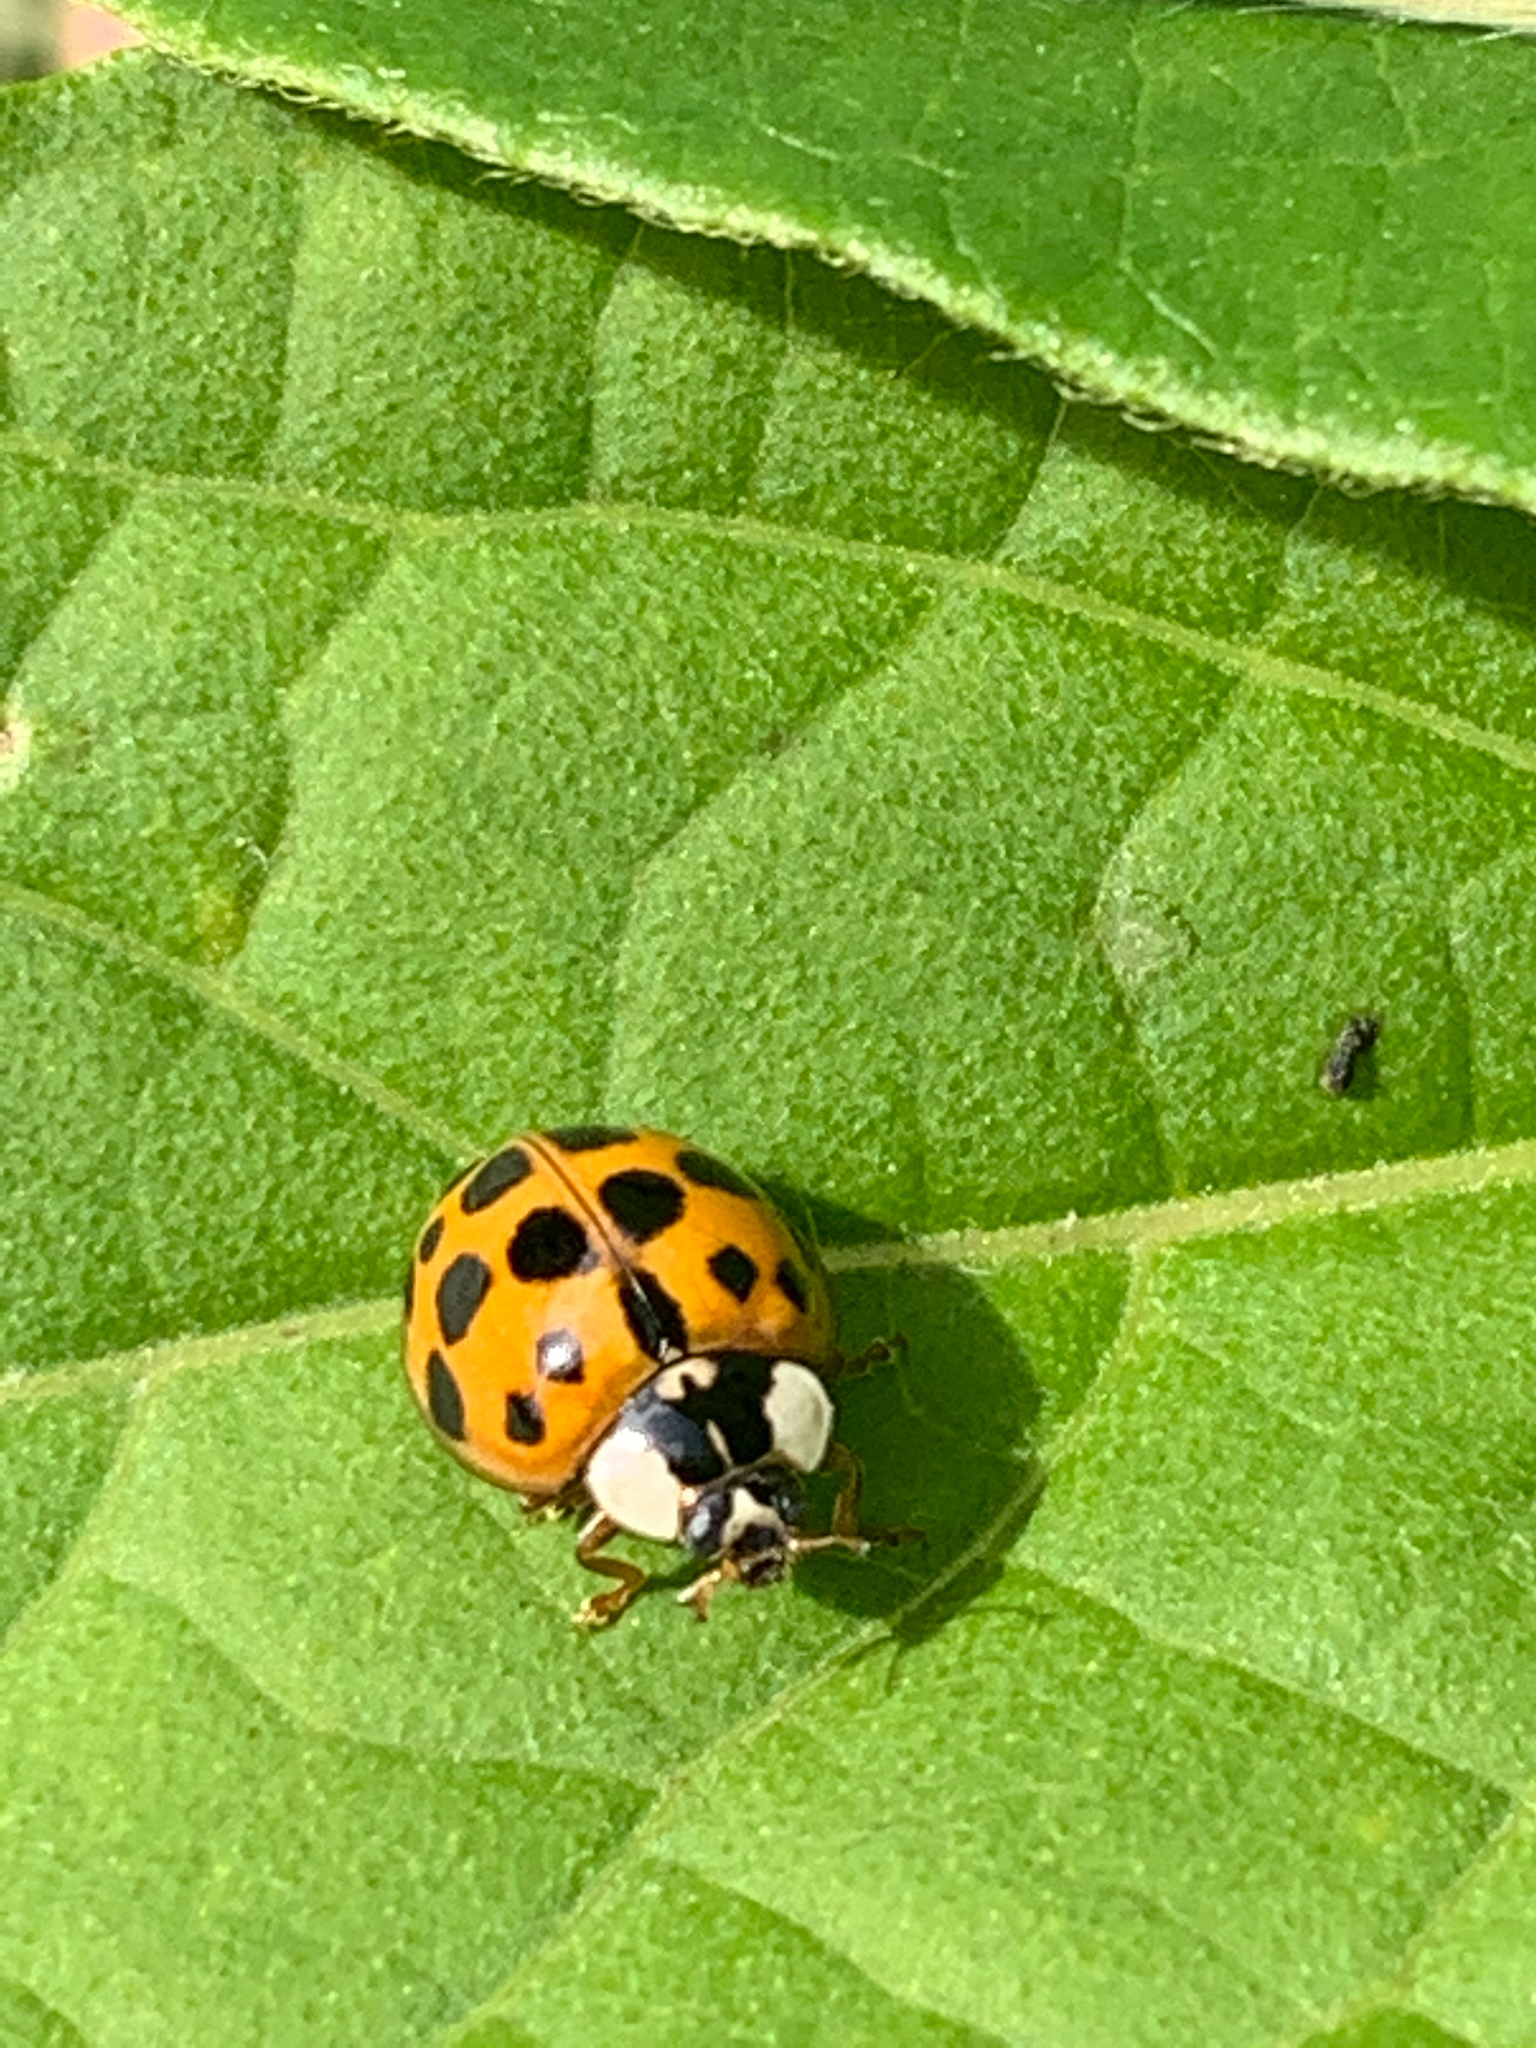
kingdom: Animalia
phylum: Arthropoda
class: Insecta
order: Coleoptera
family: Coccinellidae
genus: Harmonia
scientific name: Harmonia axyridis
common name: Harlequin ladybird
